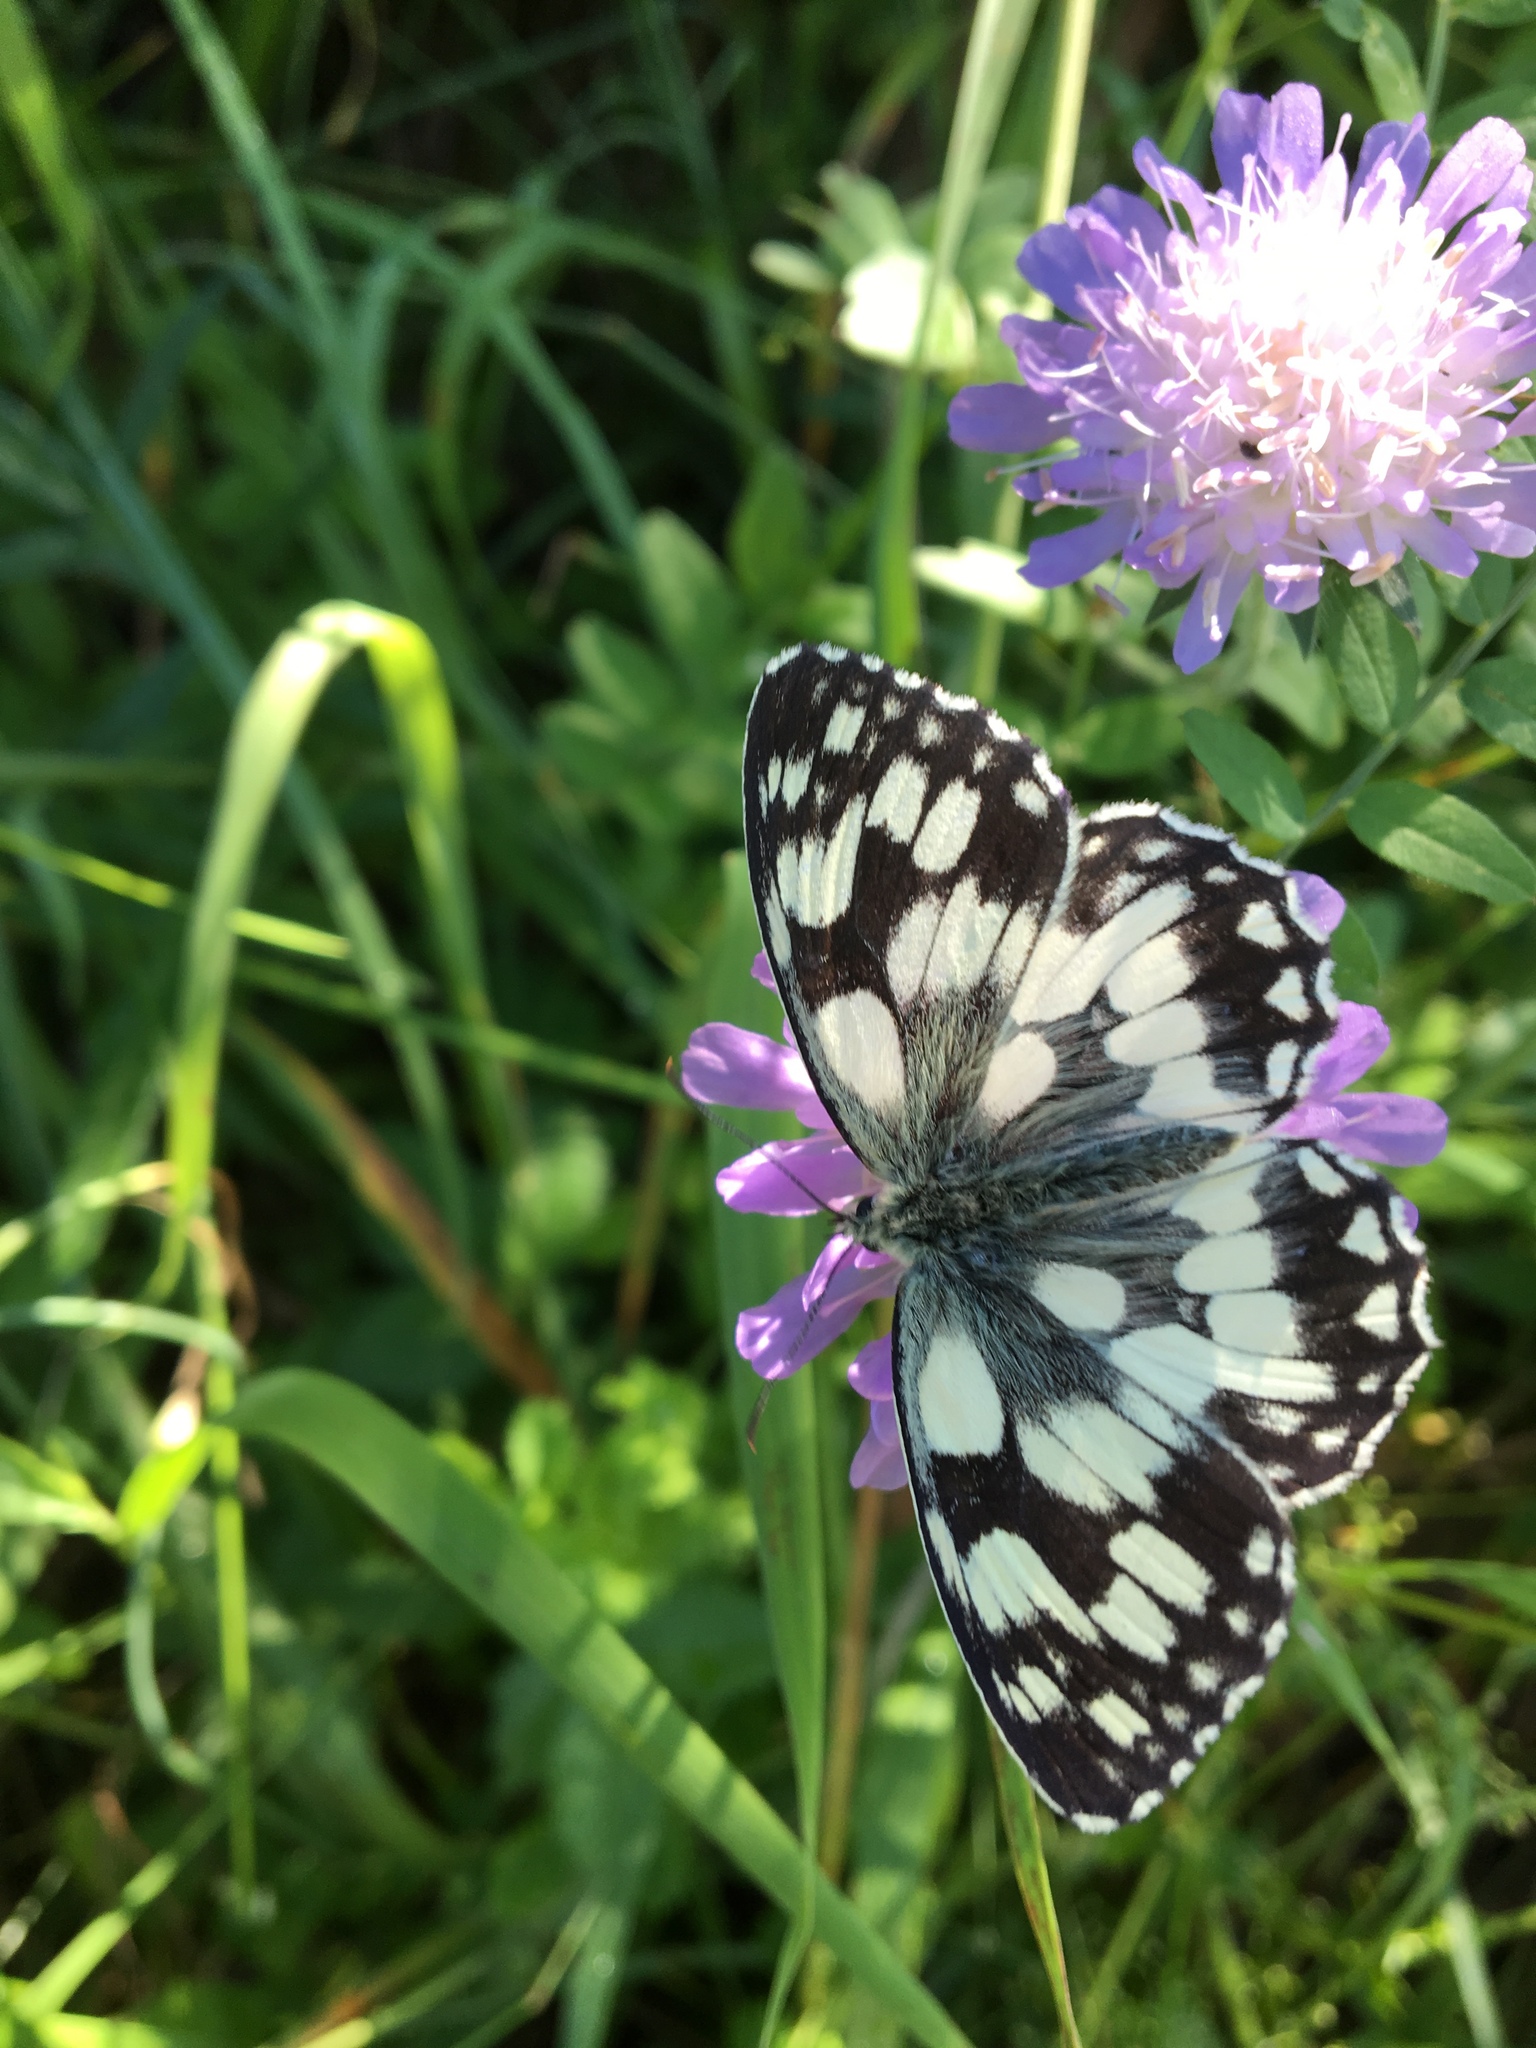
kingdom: Animalia
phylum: Arthropoda
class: Insecta
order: Lepidoptera
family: Nymphalidae
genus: Melanargia
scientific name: Melanargia galathea
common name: Marbled white
